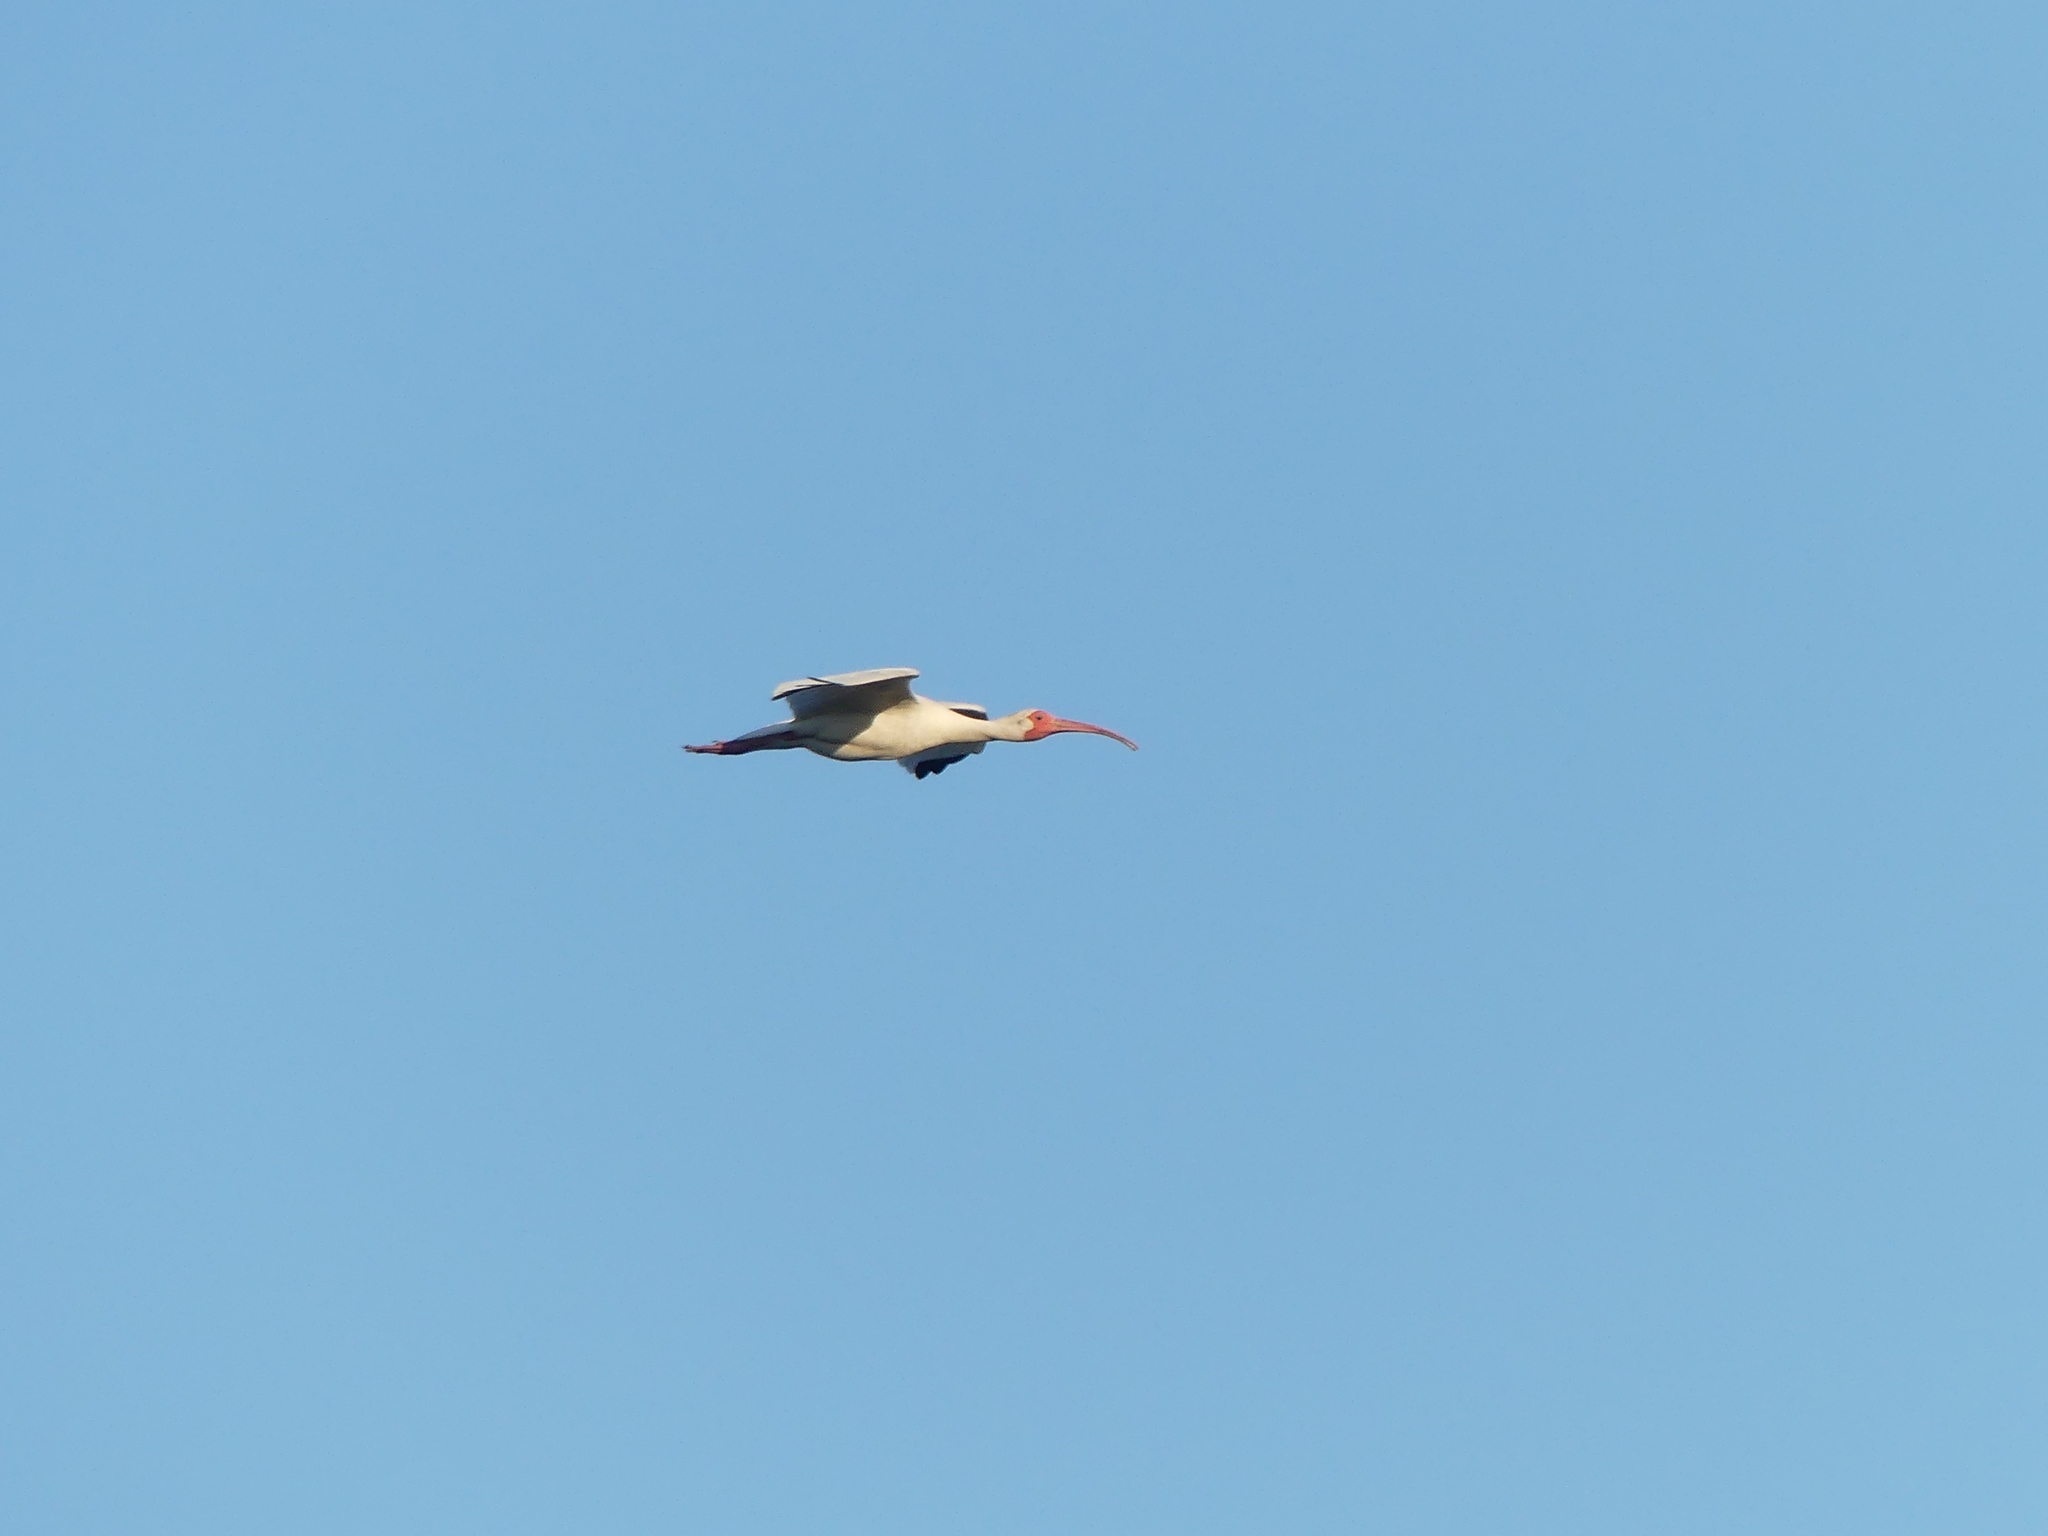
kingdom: Animalia
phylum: Chordata
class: Aves
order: Pelecaniformes
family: Threskiornithidae
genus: Eudocimus
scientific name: Eudocimus albus
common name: White ibis
